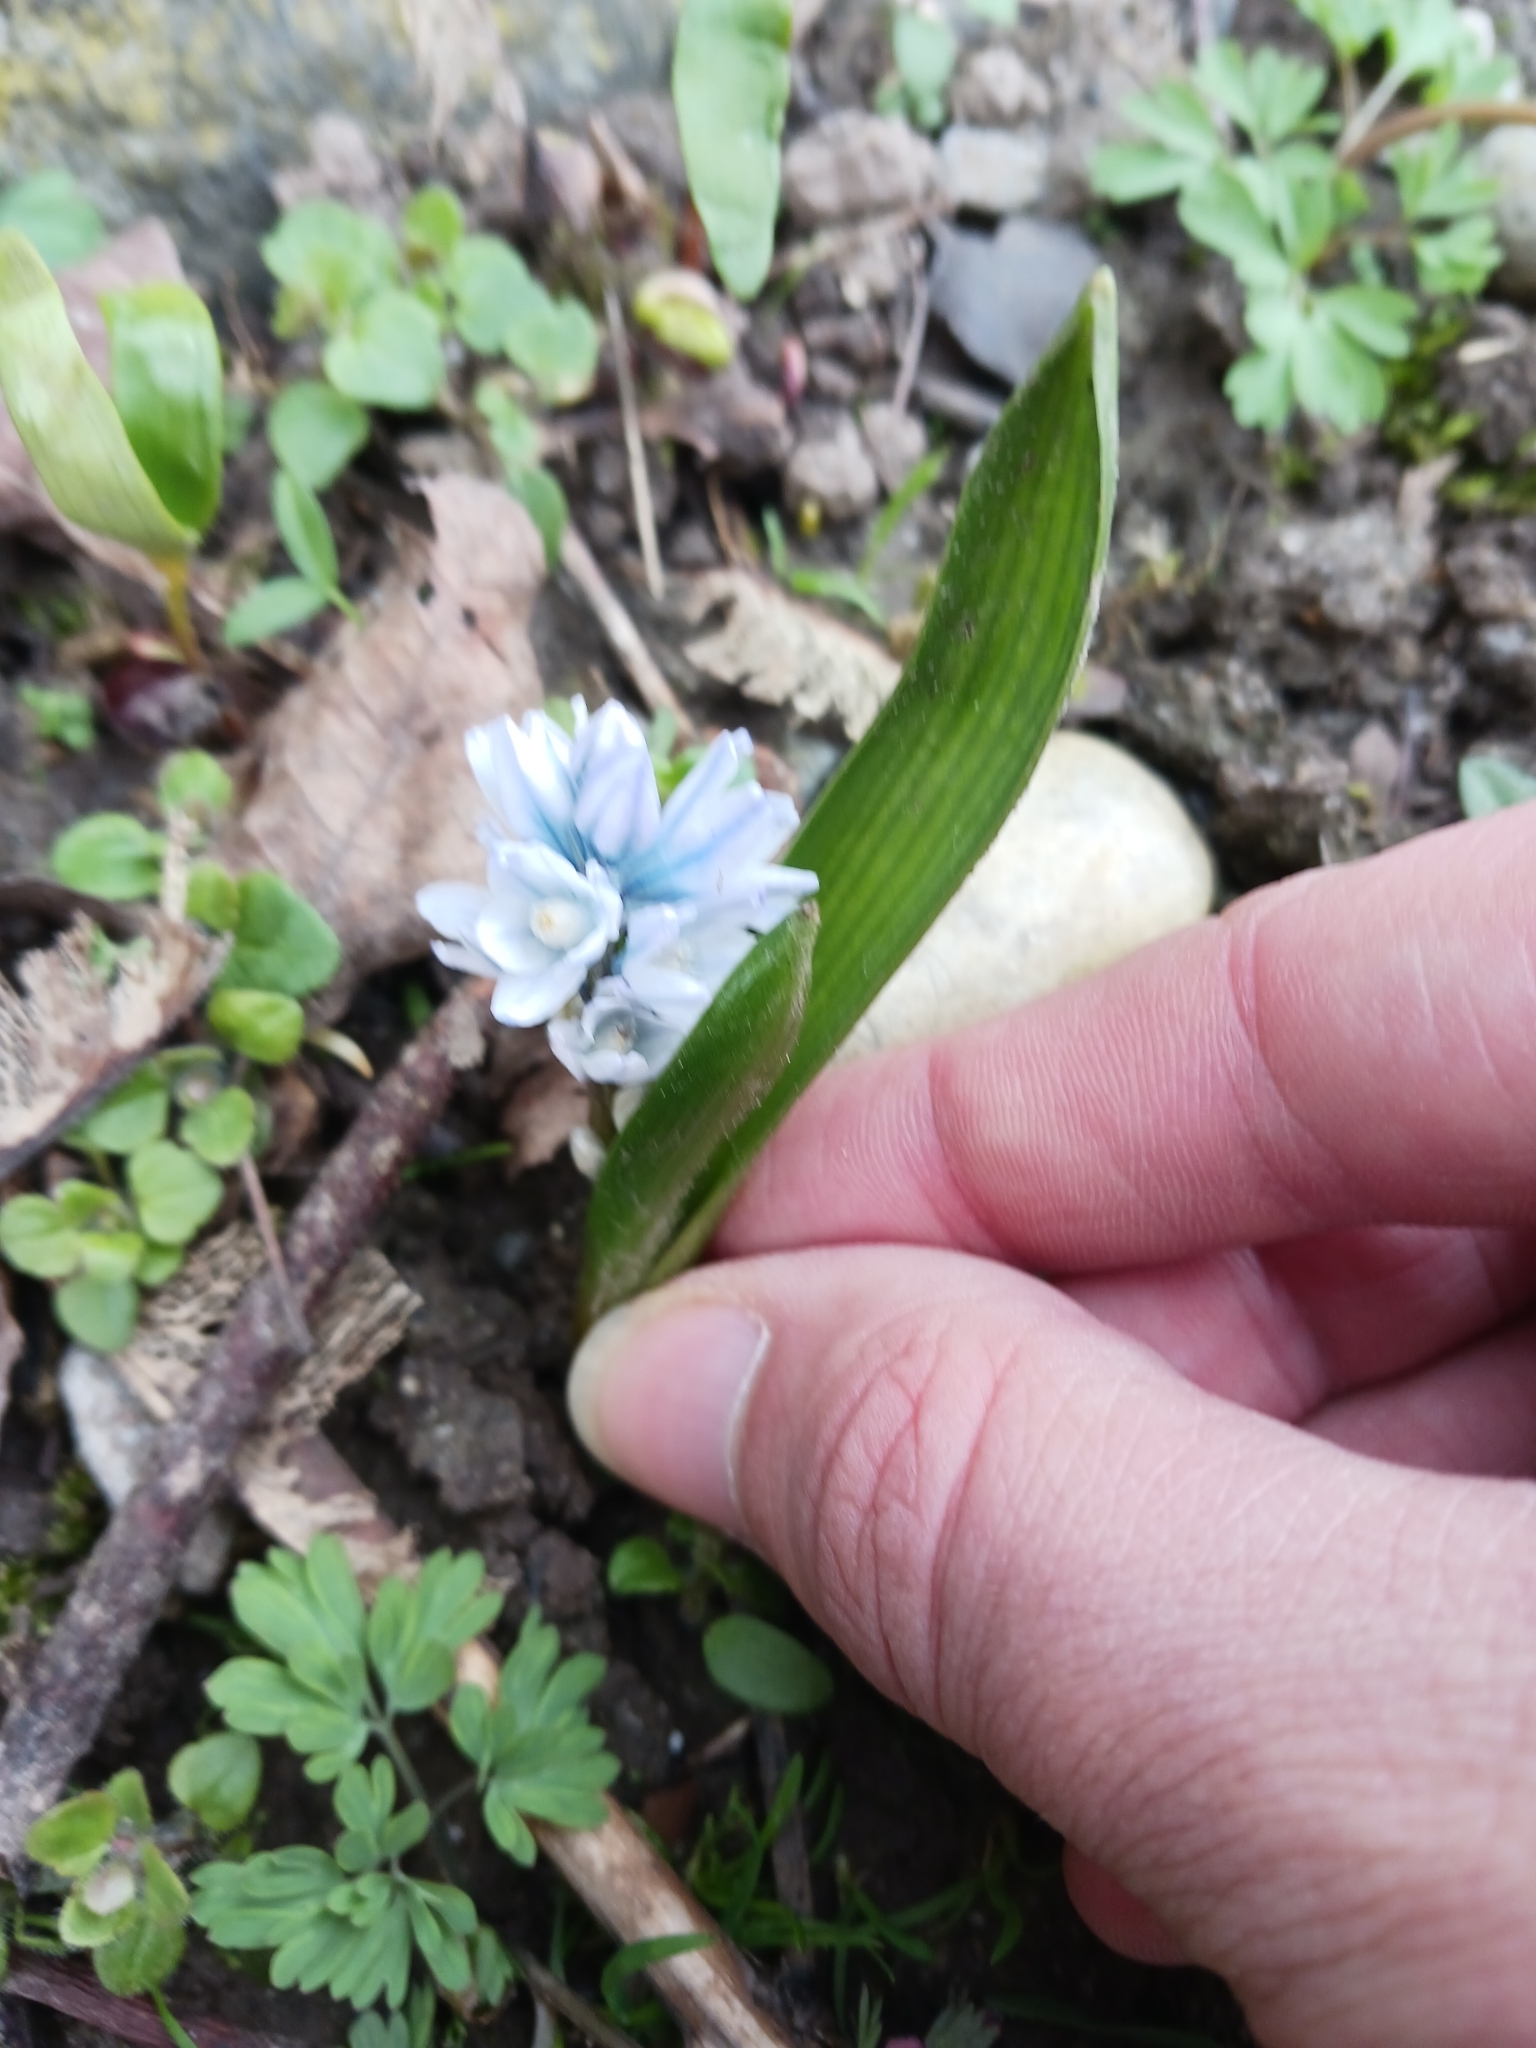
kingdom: Plantae
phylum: Tracheophyta
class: Liliopsida
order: Asparagales
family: Asparagaceae
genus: Puschkinia
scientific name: Puschkinia scilloides
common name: Striped squill
